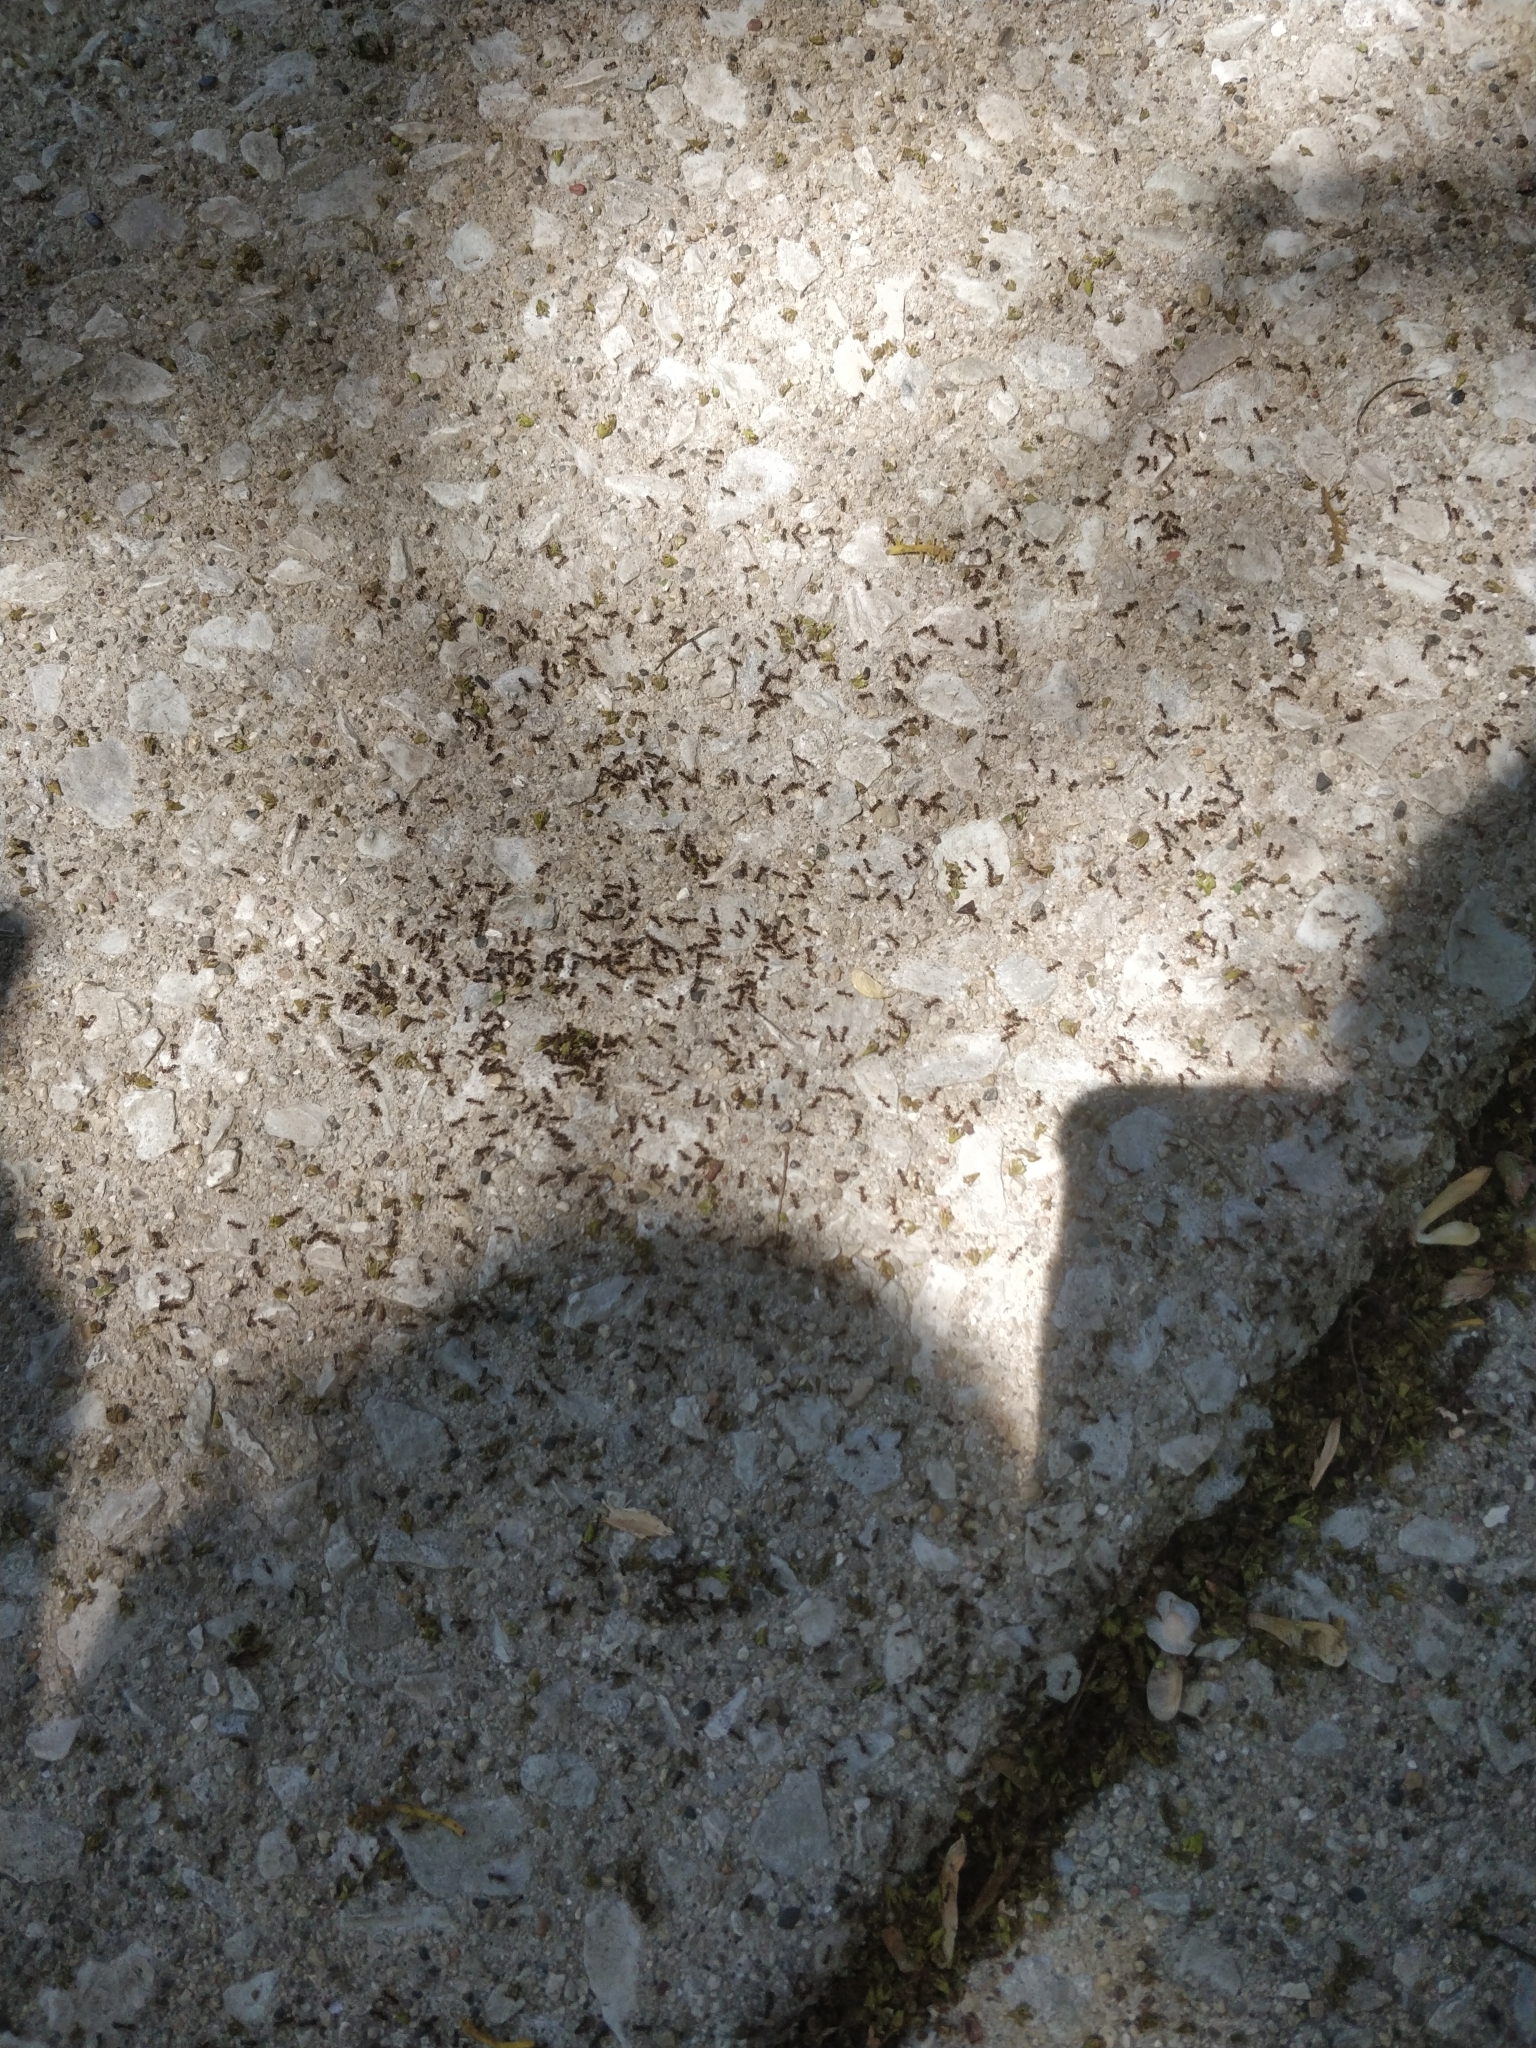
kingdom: Animalia
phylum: Arthropoda
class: Insecta
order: Hymenoptera
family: Formicidae
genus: Tetramorium
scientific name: Tetramorium immigrans
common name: Pavement ant
